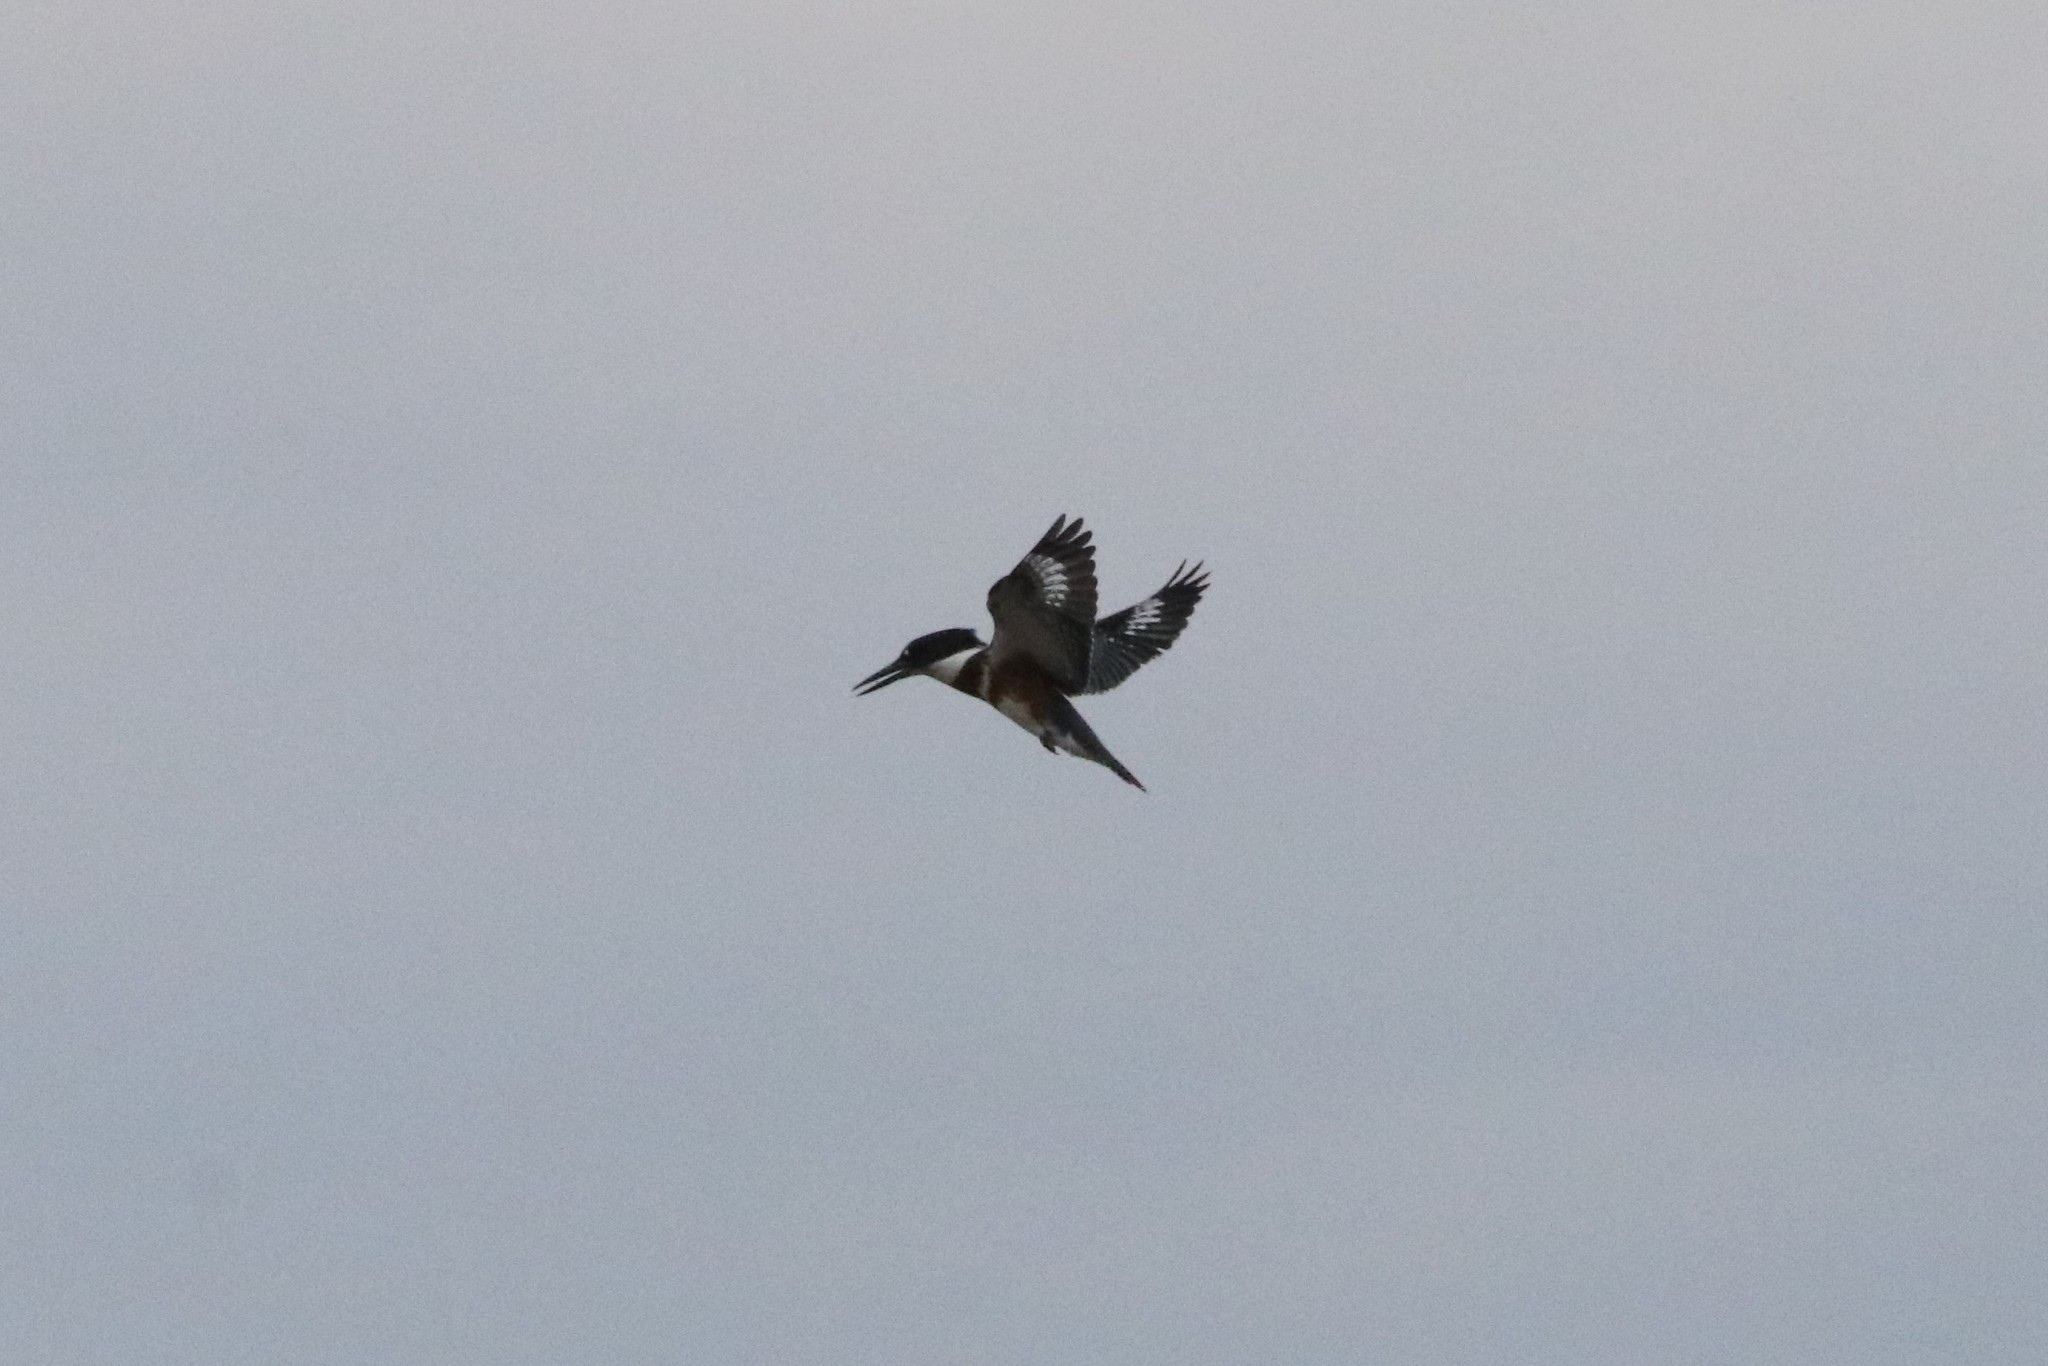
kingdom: Animalia
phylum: Chordata
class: Aves
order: Coraciiformes
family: Alcedinidae
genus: Megaceryle
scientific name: Megaceryle alcyon
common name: Belted kingfisher
